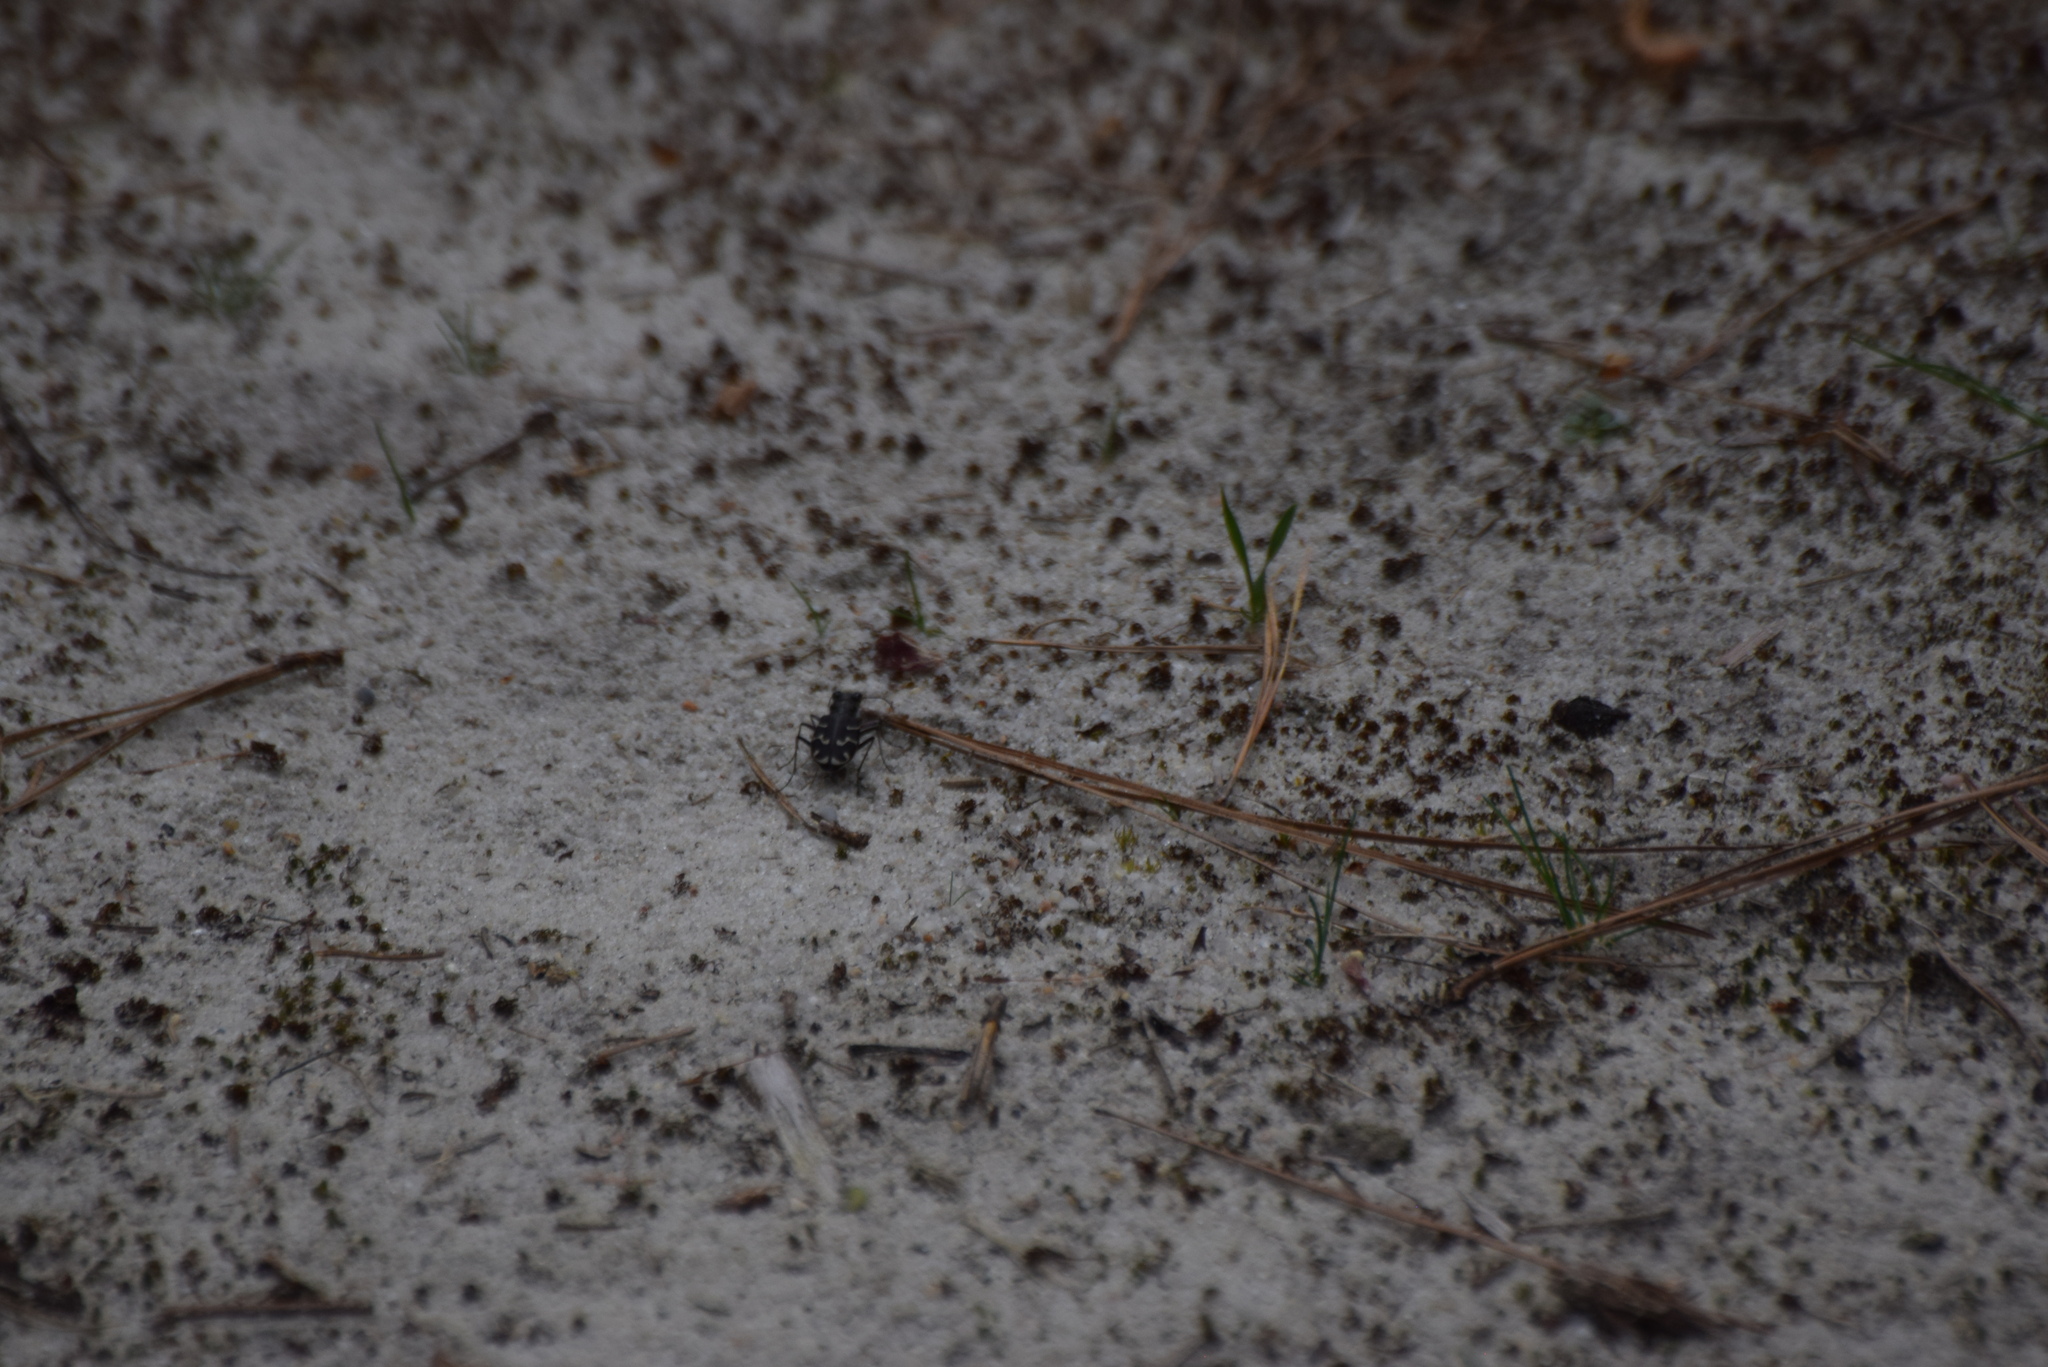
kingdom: Animalia
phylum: Arthropoda
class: Insecta
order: Coleoptera
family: Carabidae
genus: Cicindela
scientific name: Cicindela tranquebarica
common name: Oblique-lined tiger beetle
